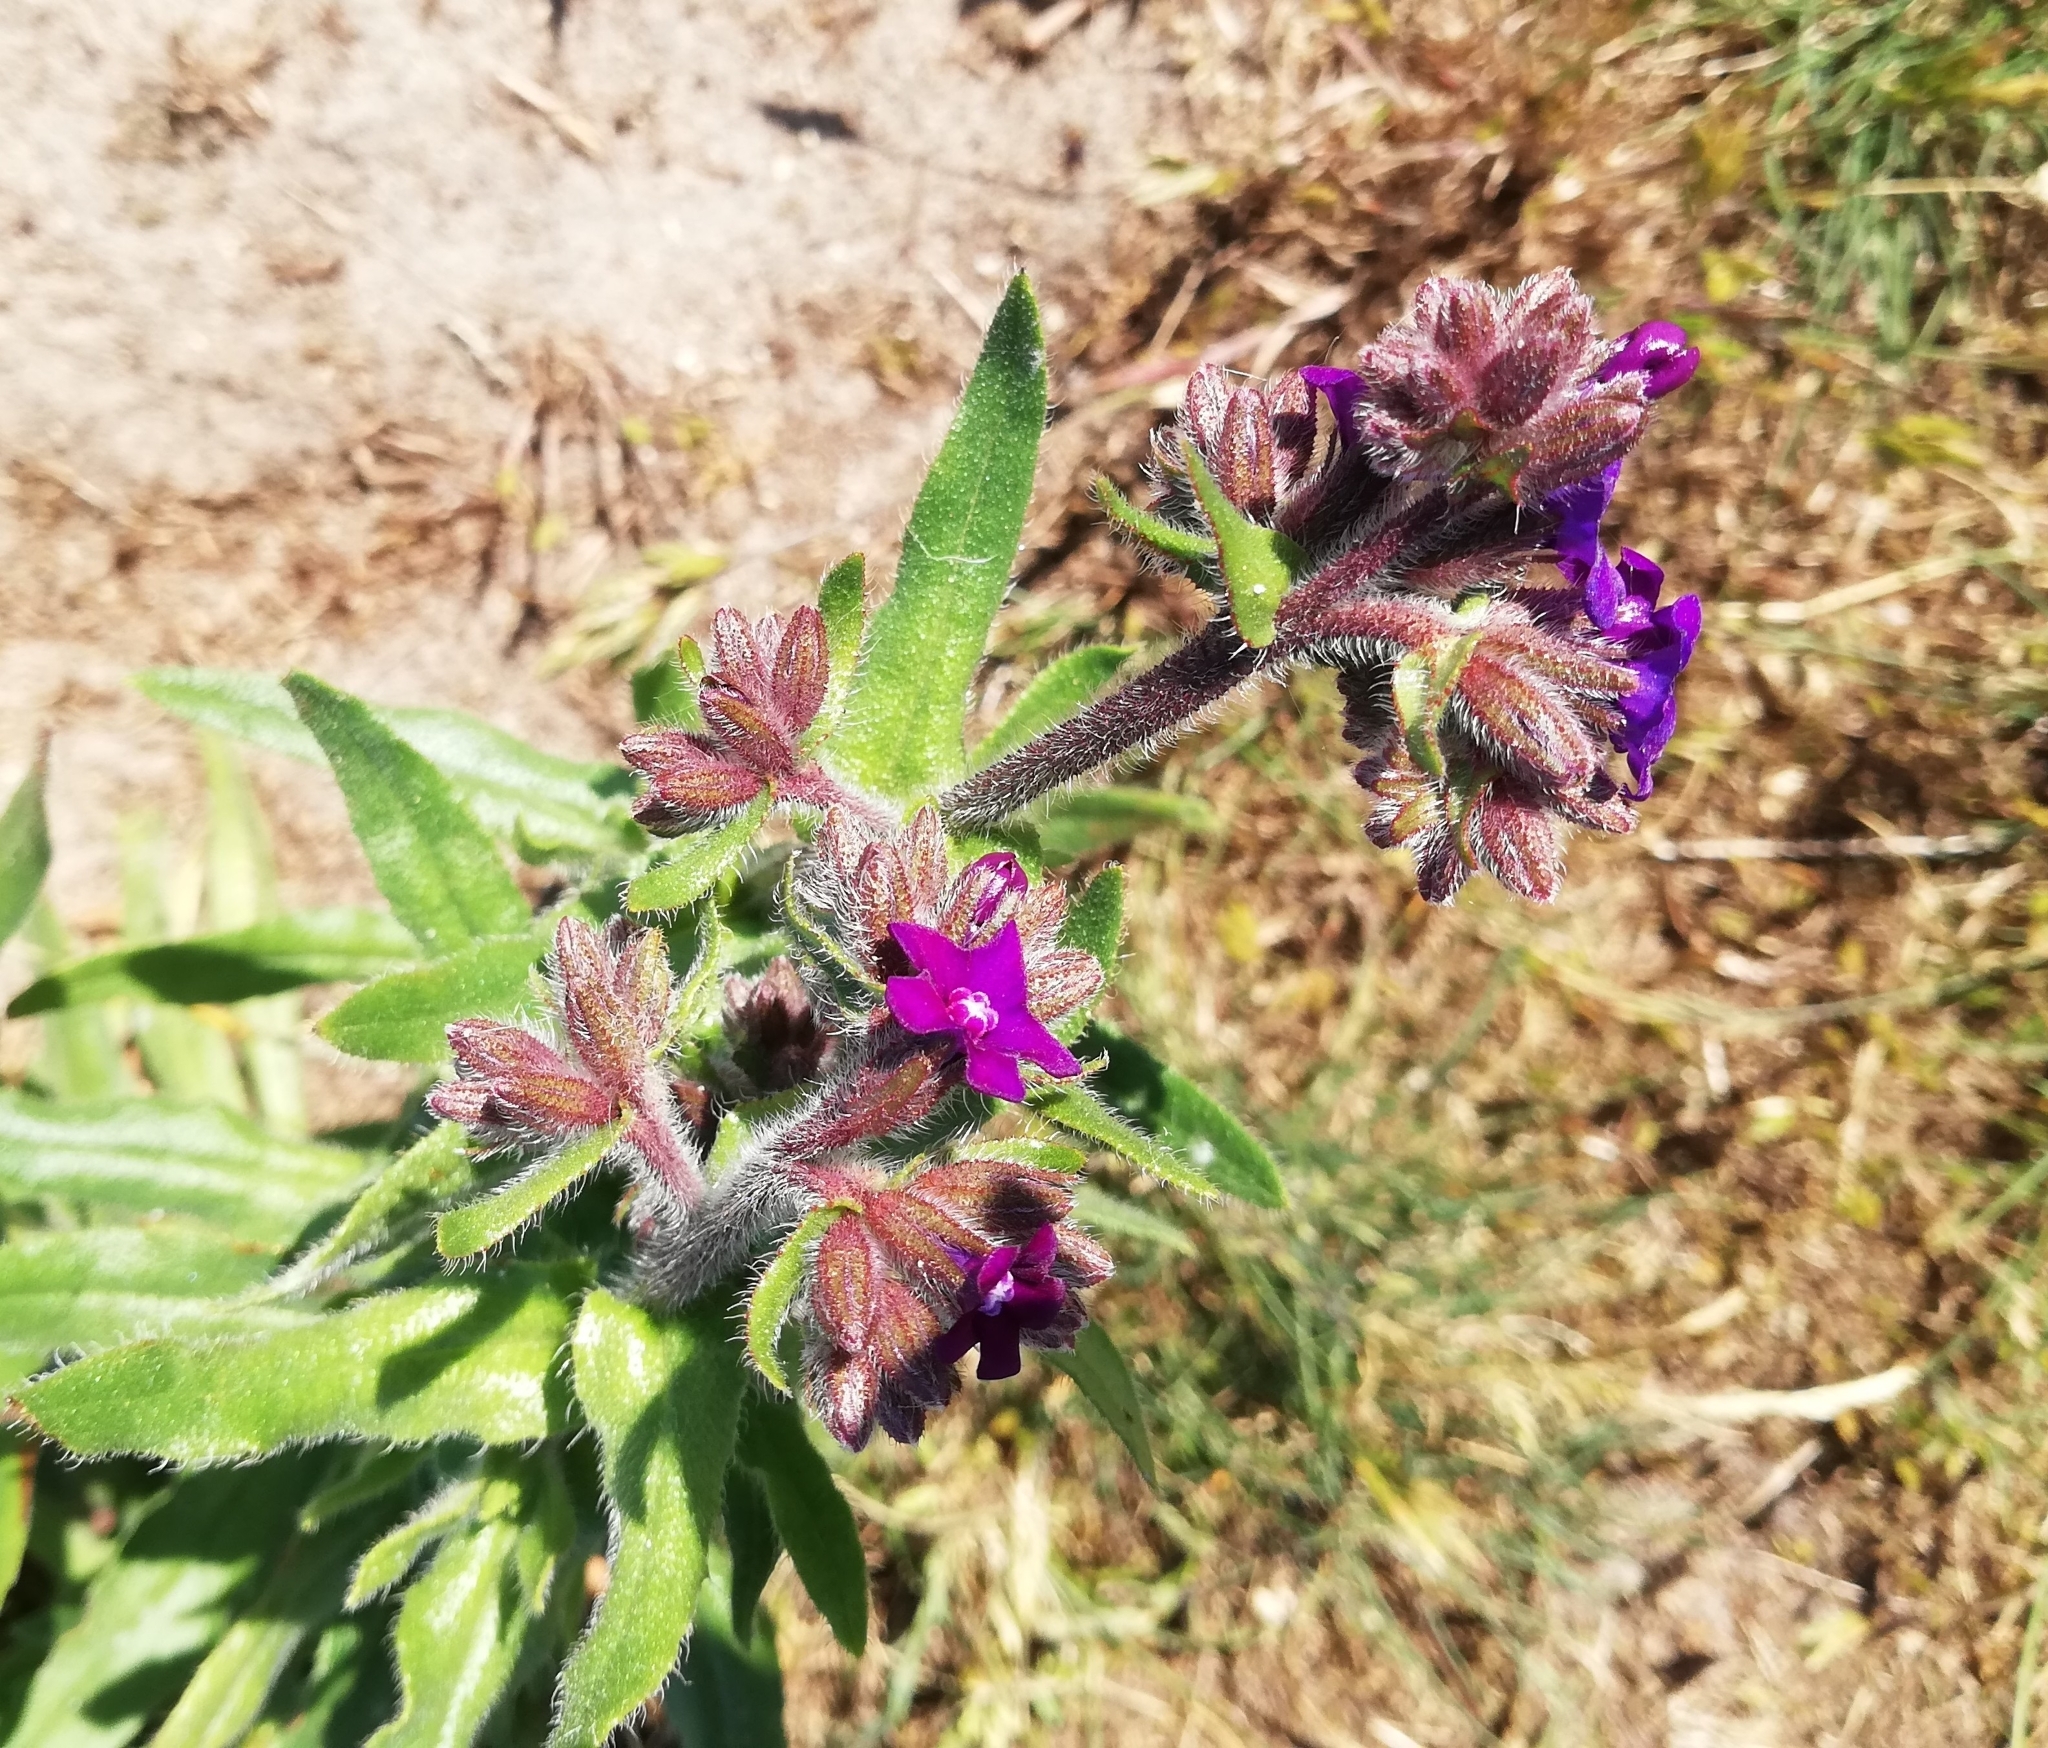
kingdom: Plantae
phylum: Tracheophyta
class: Magnoliopsida
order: Boraginales
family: Boraginaceae
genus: Anchusa
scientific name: Anchusa officinalis
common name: Alkanet
